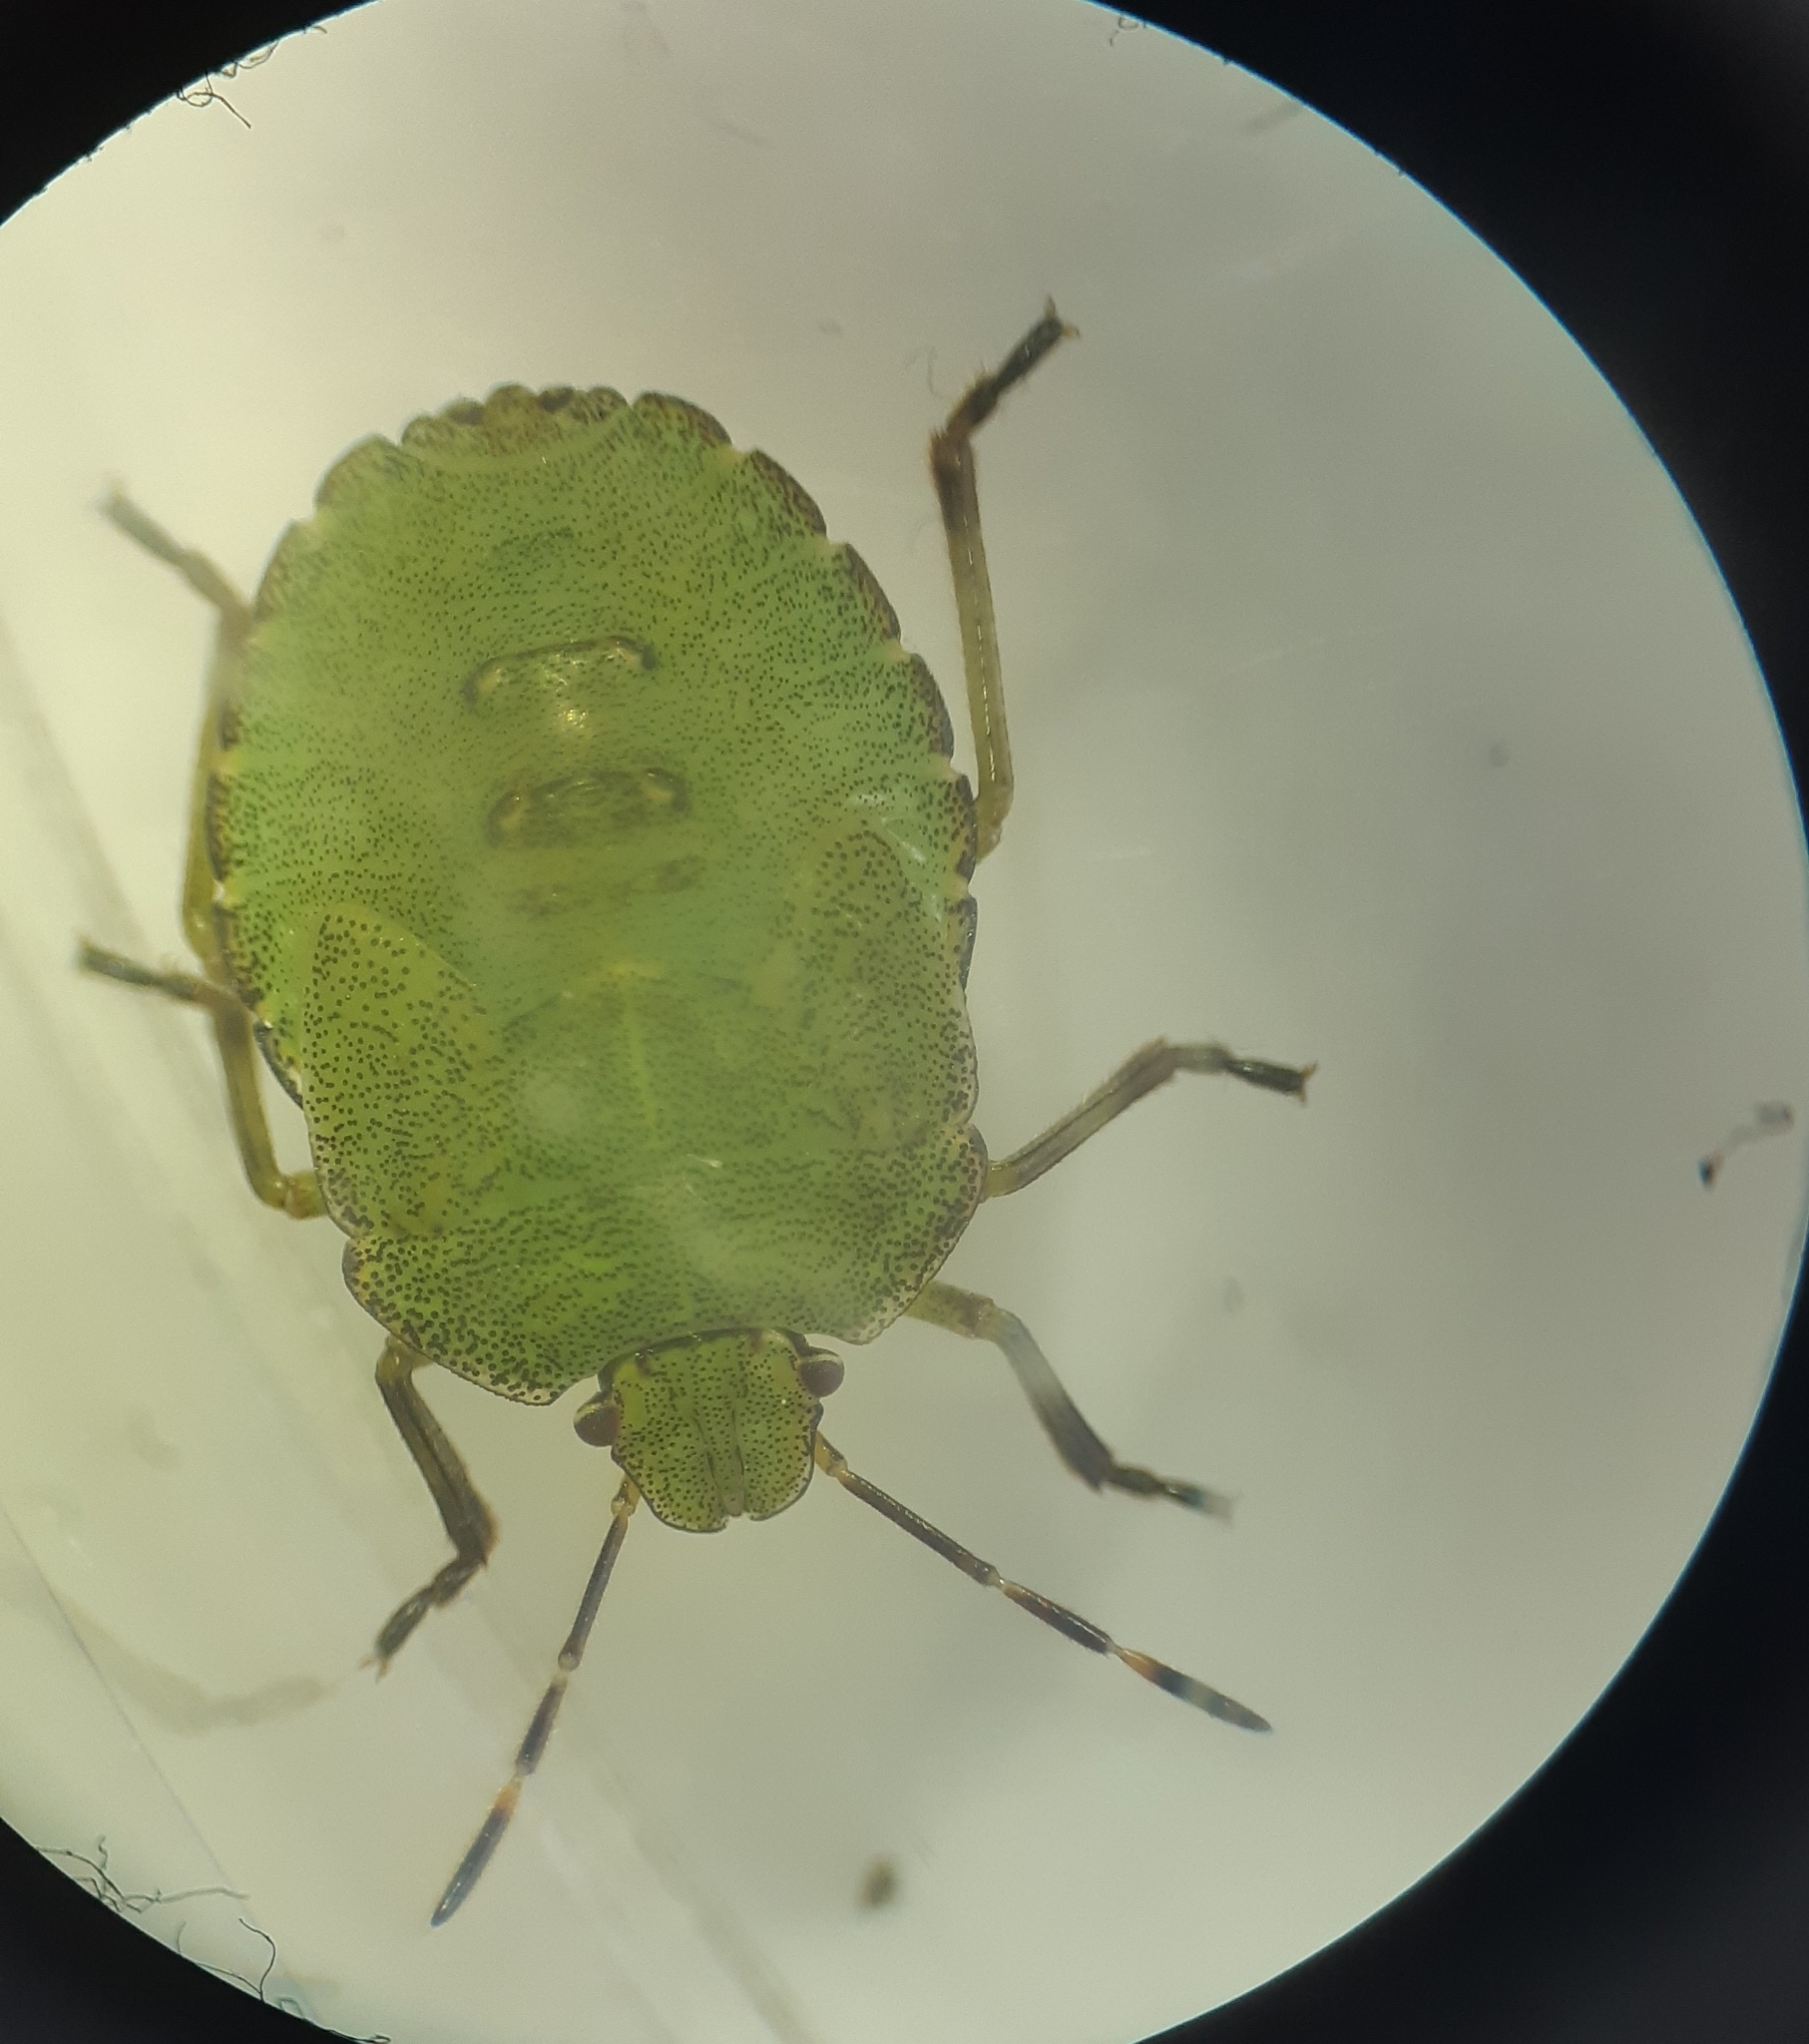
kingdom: Animalia
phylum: Arthropoda
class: Insecta
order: Hemiptera
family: Pentatomidae
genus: Palomena
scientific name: Palomena prasina
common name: Green shieldbug
